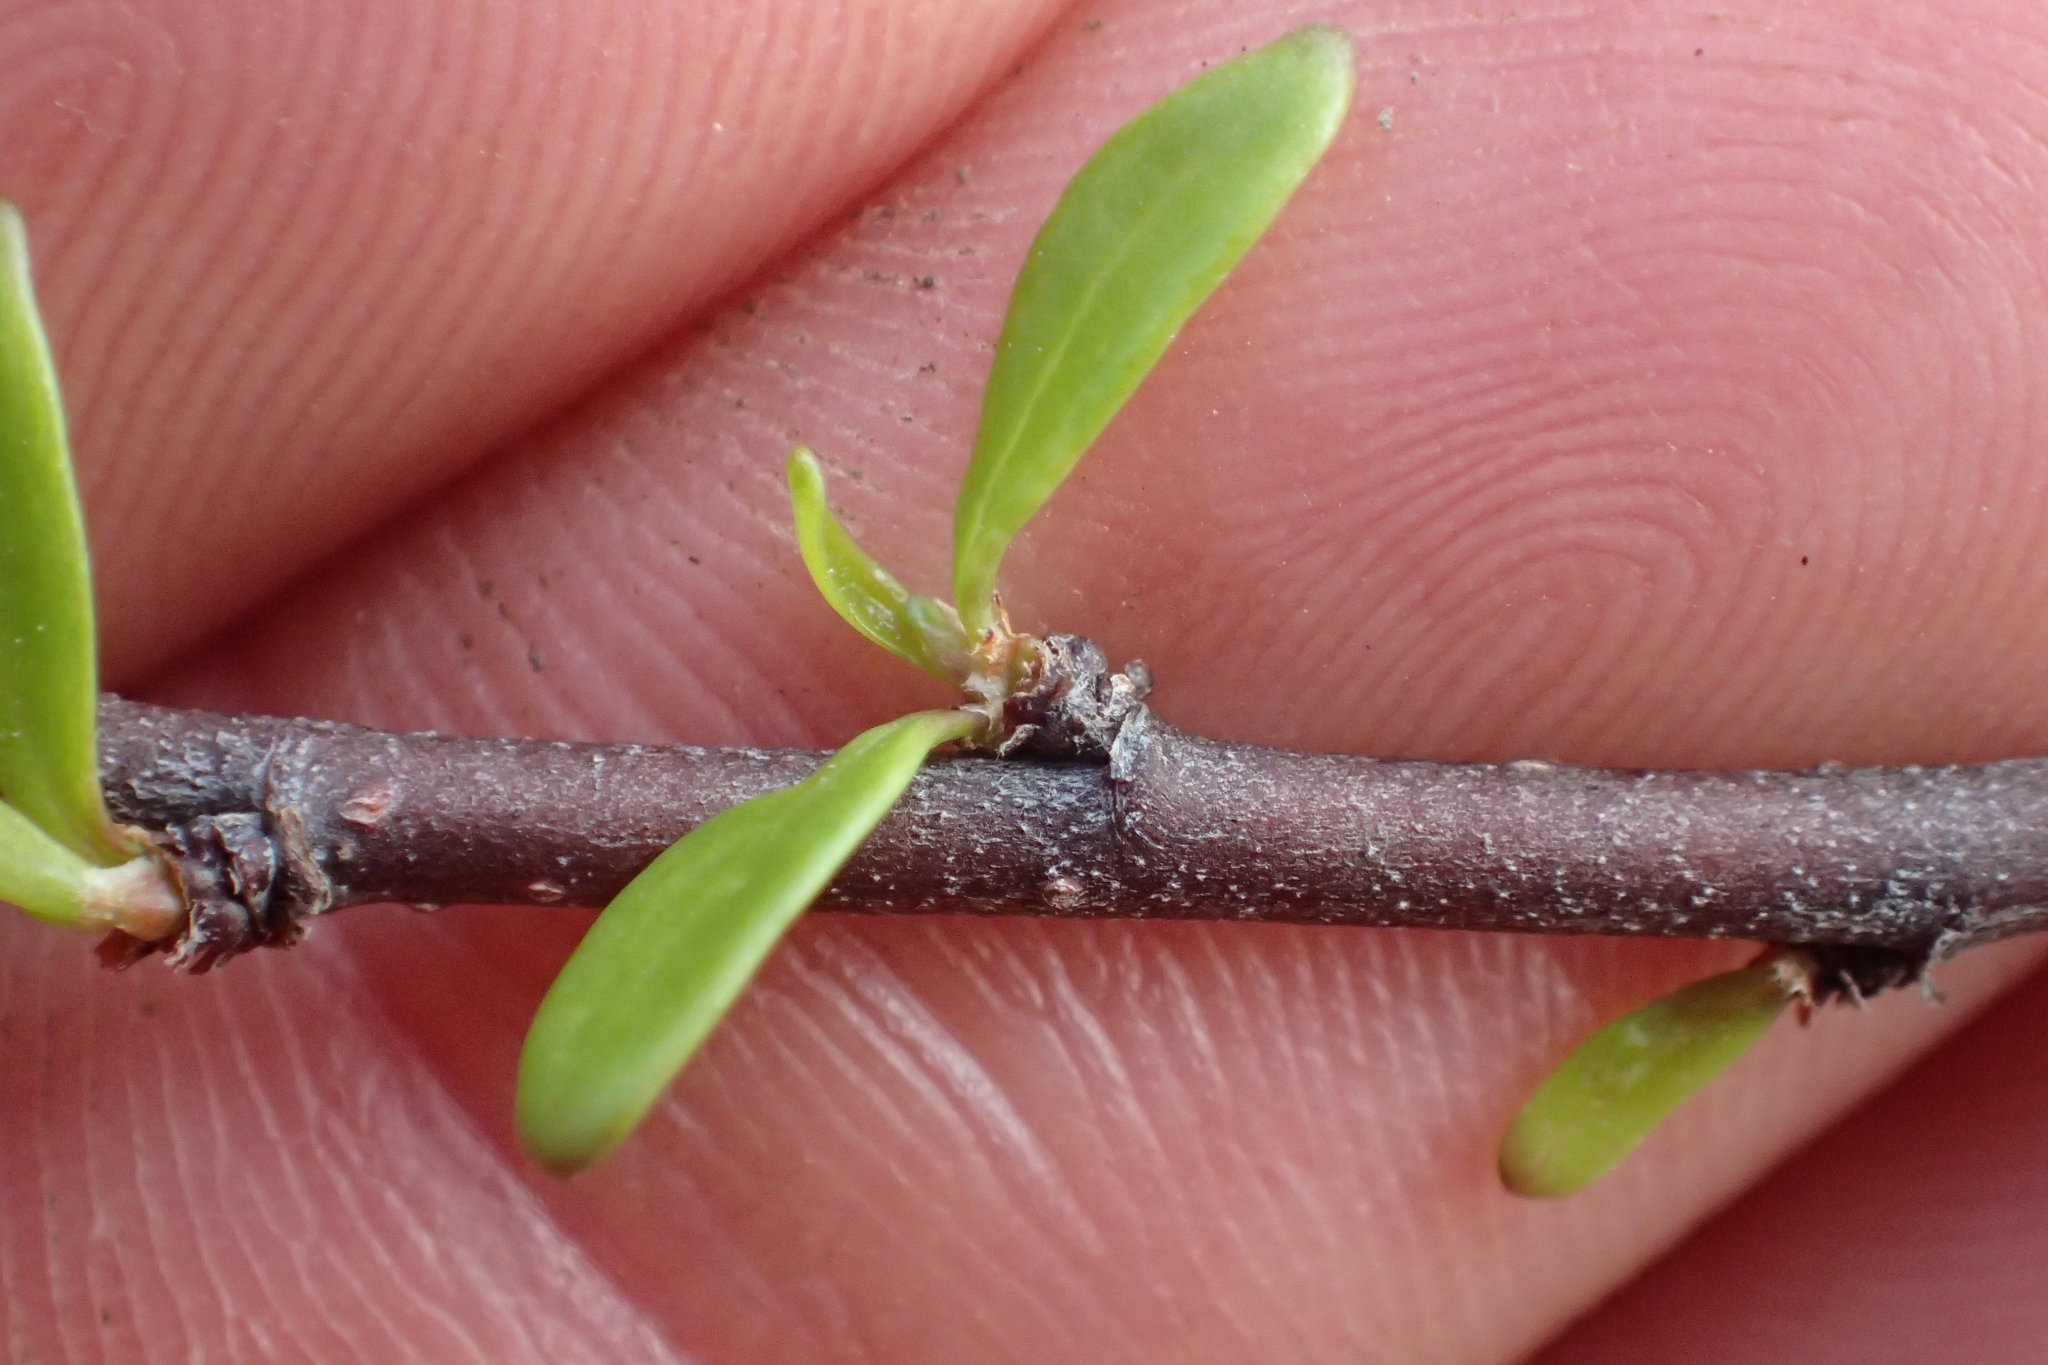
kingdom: Plantae
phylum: Tracheophyta
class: Magnoliopsida
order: Malvales
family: Malvaceae
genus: Plagianthus
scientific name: Plagianthus divaricatus
